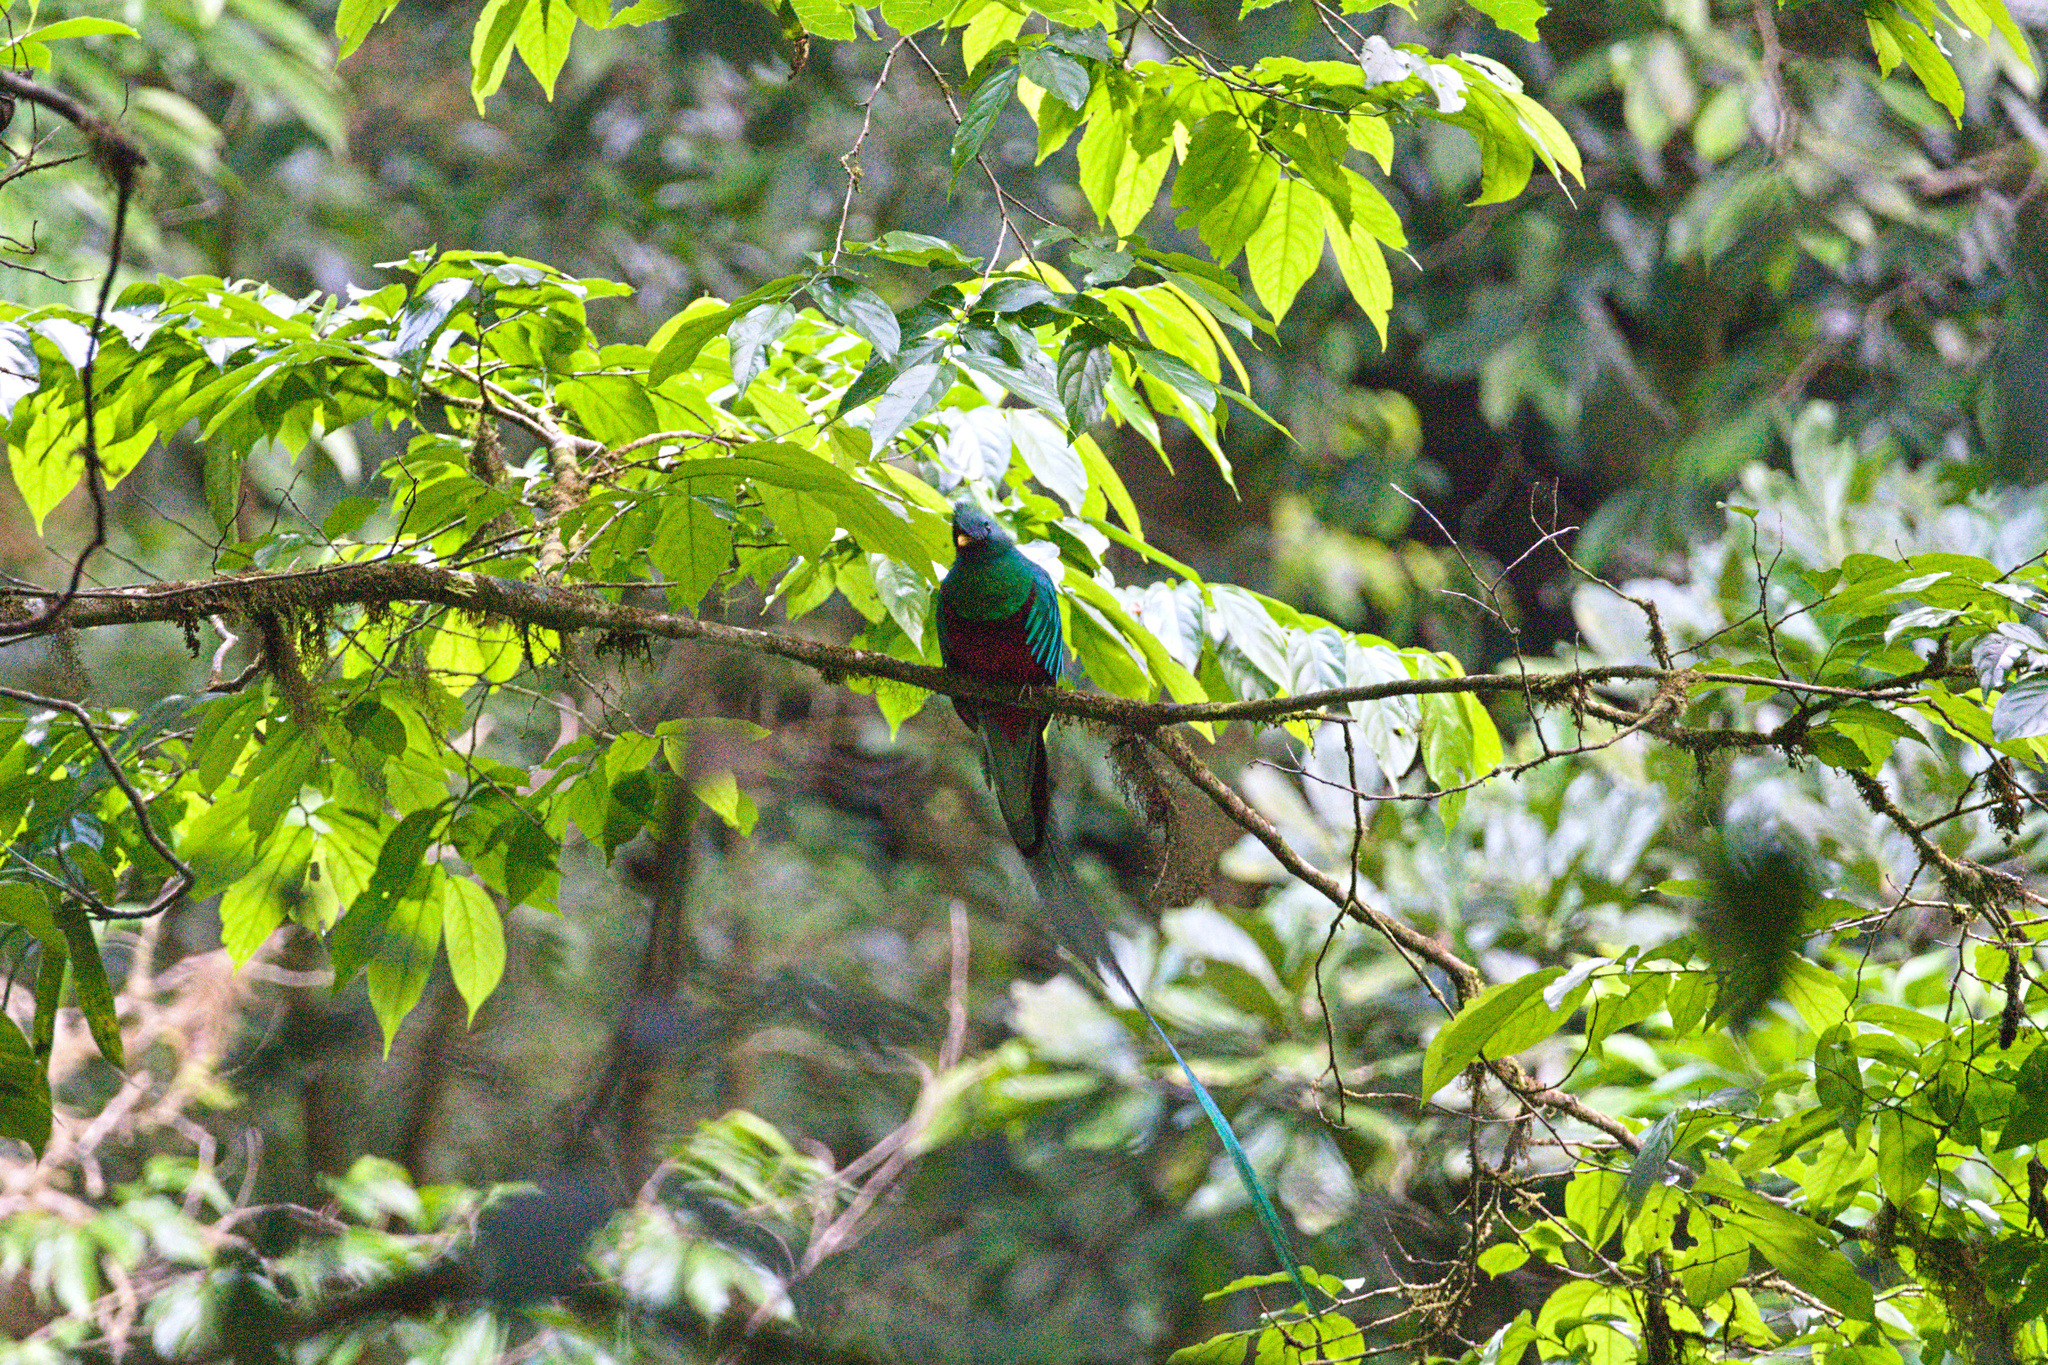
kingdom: Animalia
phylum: Chordata
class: Aves
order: Trogoniformes
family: Trogonidae
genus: Pharomachrus
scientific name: Pharomachrus mocinno
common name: Resplendent quetzal
